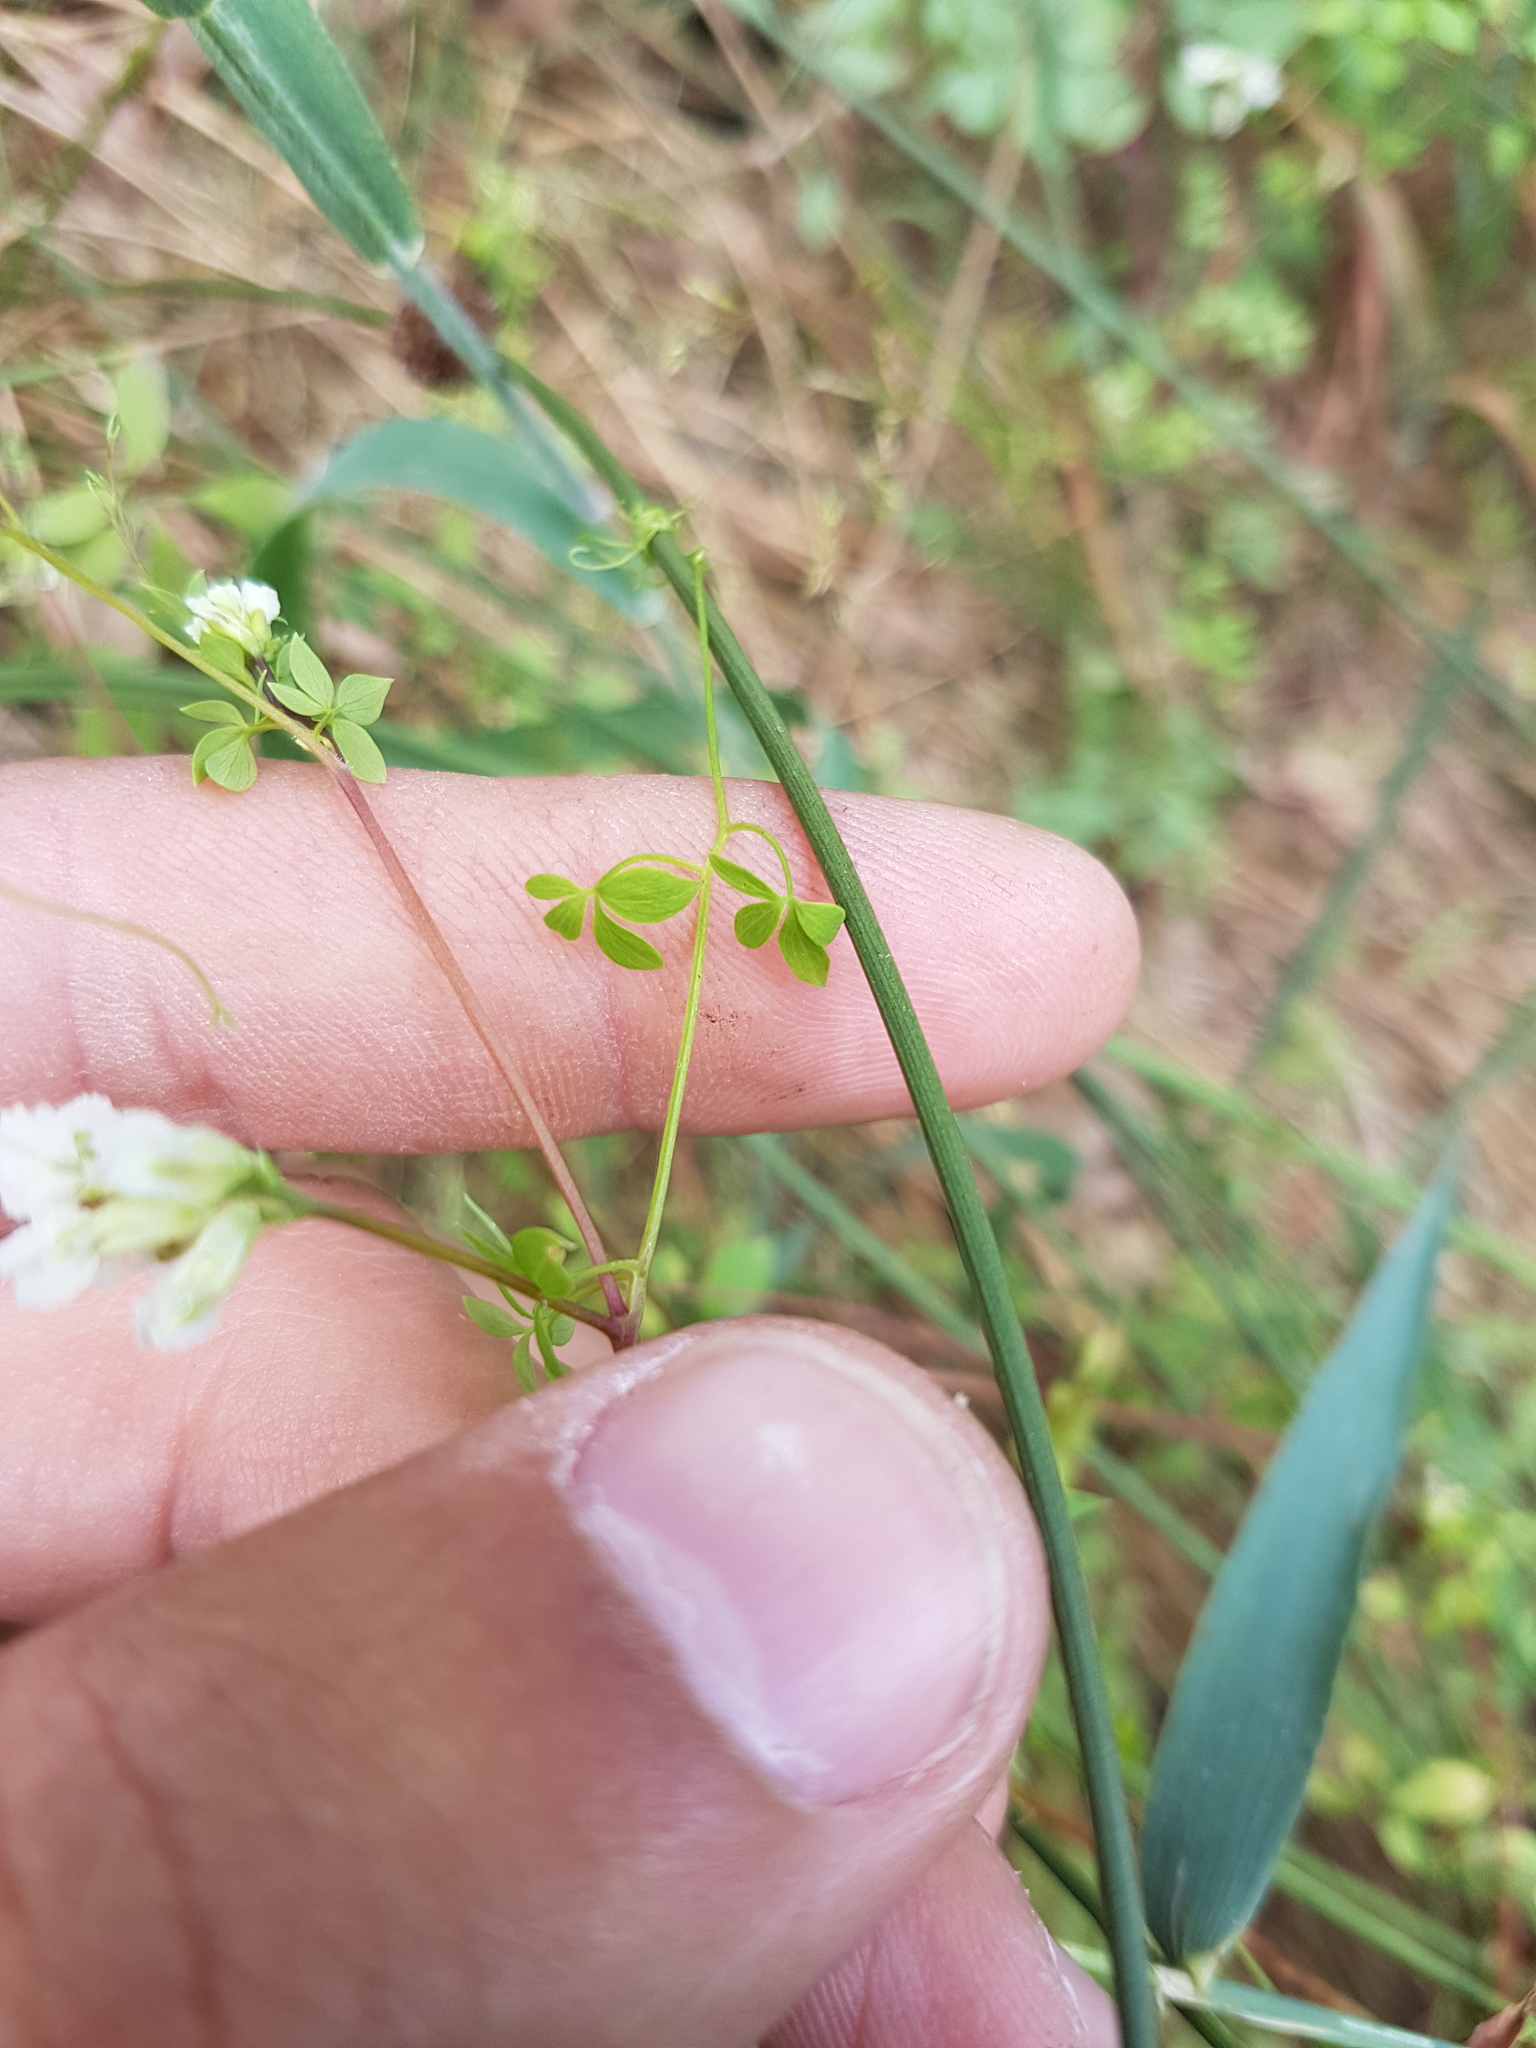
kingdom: Plantae
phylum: Tracheophyta
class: Magnoliopsida
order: Ranunculales
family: Papaveraceae
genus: Ceratocapnos
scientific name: Ceratocapnos claviculata
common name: Climbing corydalis
